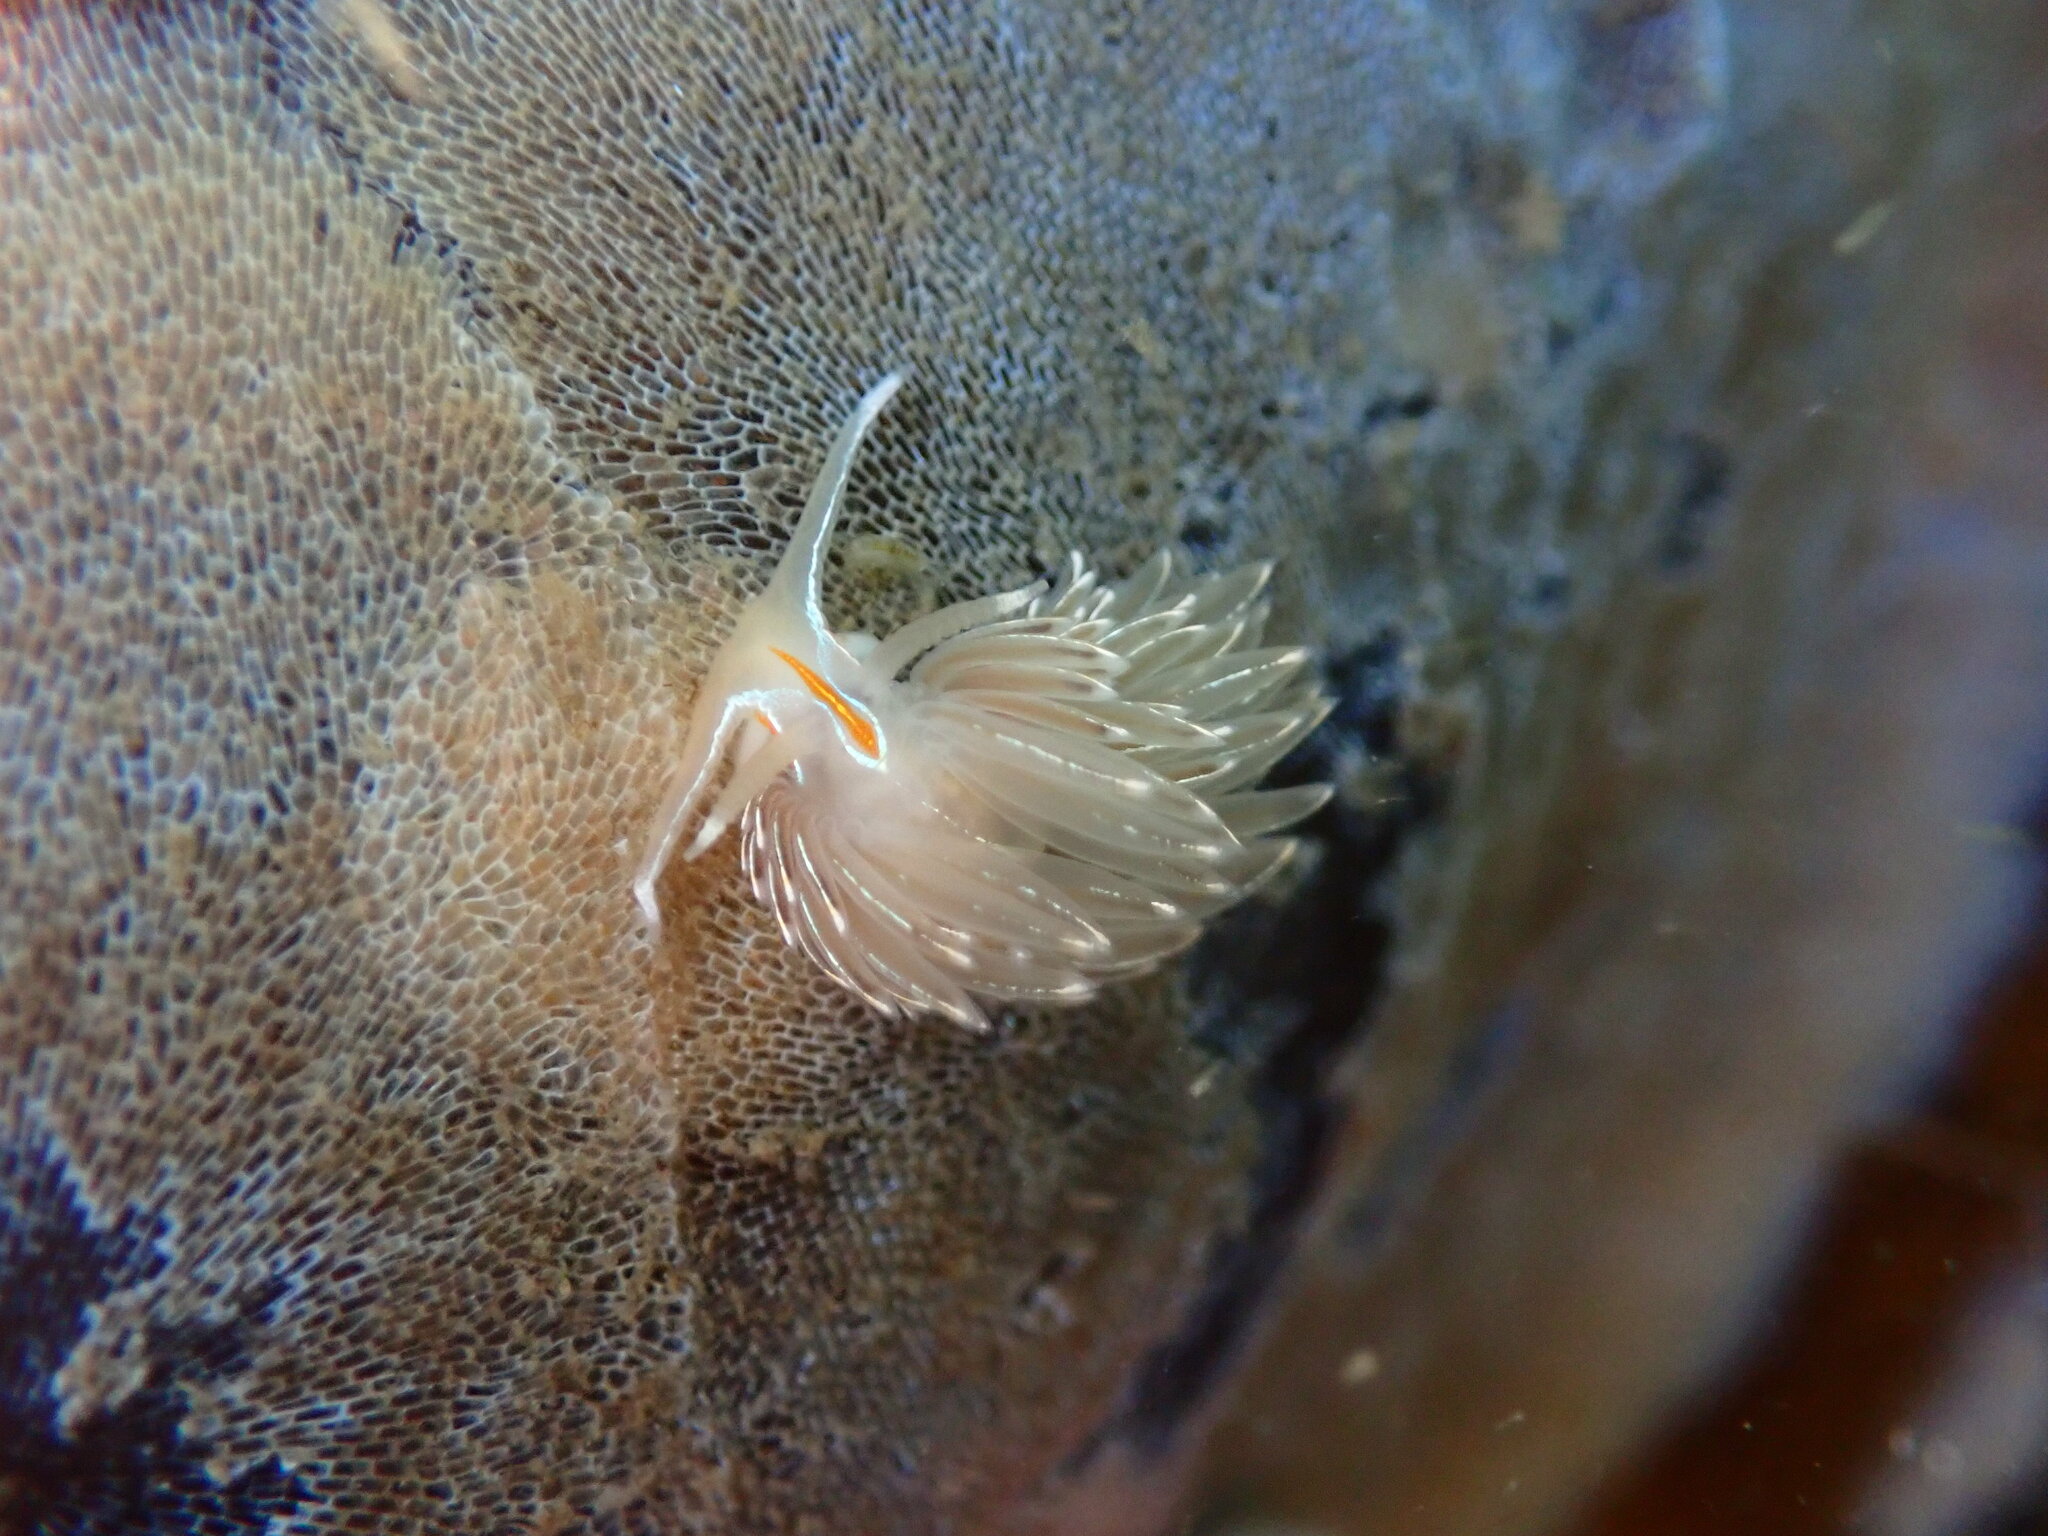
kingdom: Animalia
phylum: Mollusca
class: Gastropoda
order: Nudibranchia
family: Myrrhinidae
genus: Hermissenda
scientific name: Hermissenda crassicornis
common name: Hermissenda
